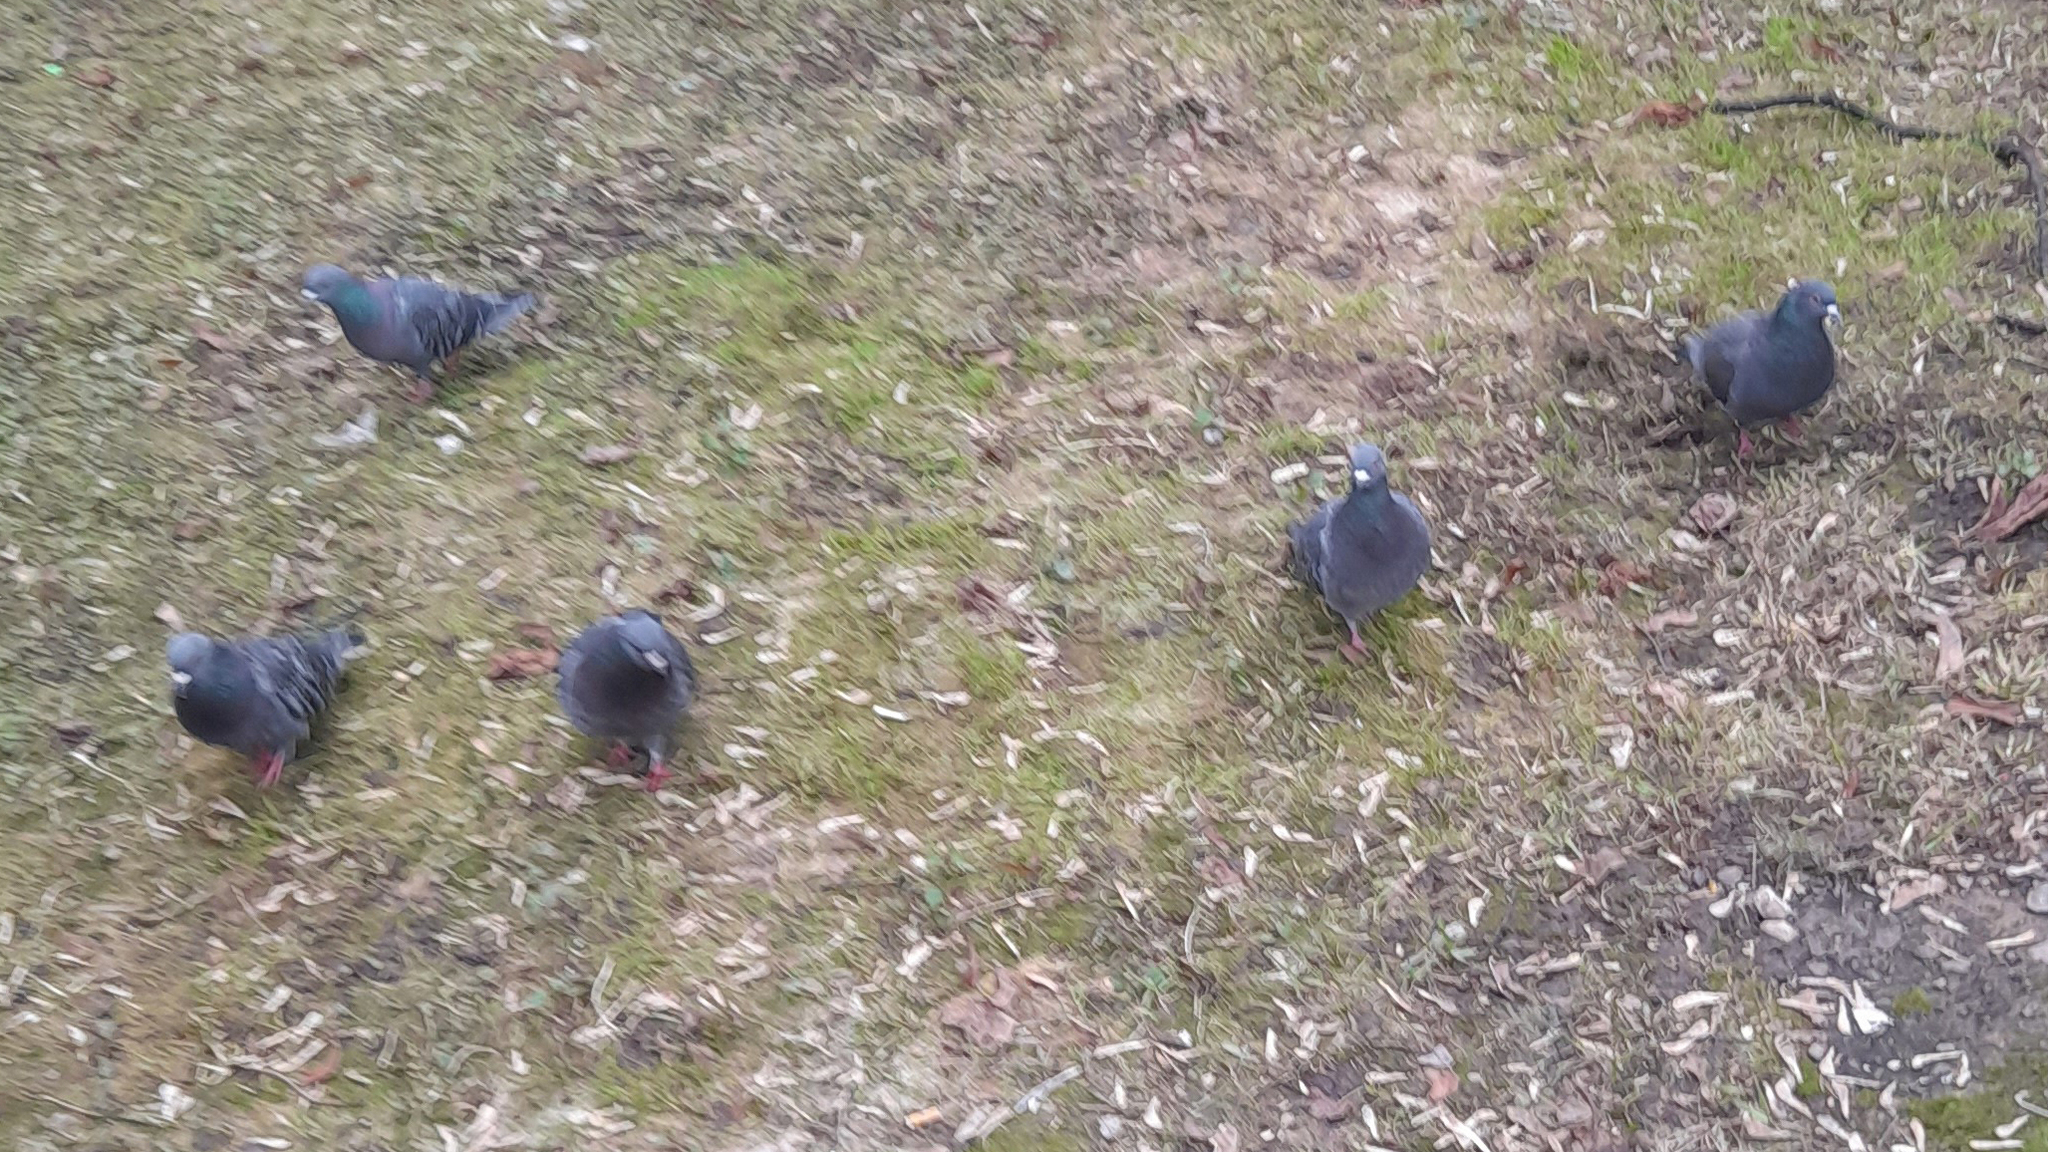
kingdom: Animalia
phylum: Chordata
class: Aves
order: Columbiformes
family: Columbidae
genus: Columba
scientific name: Columba livia
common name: Rock pigeon
